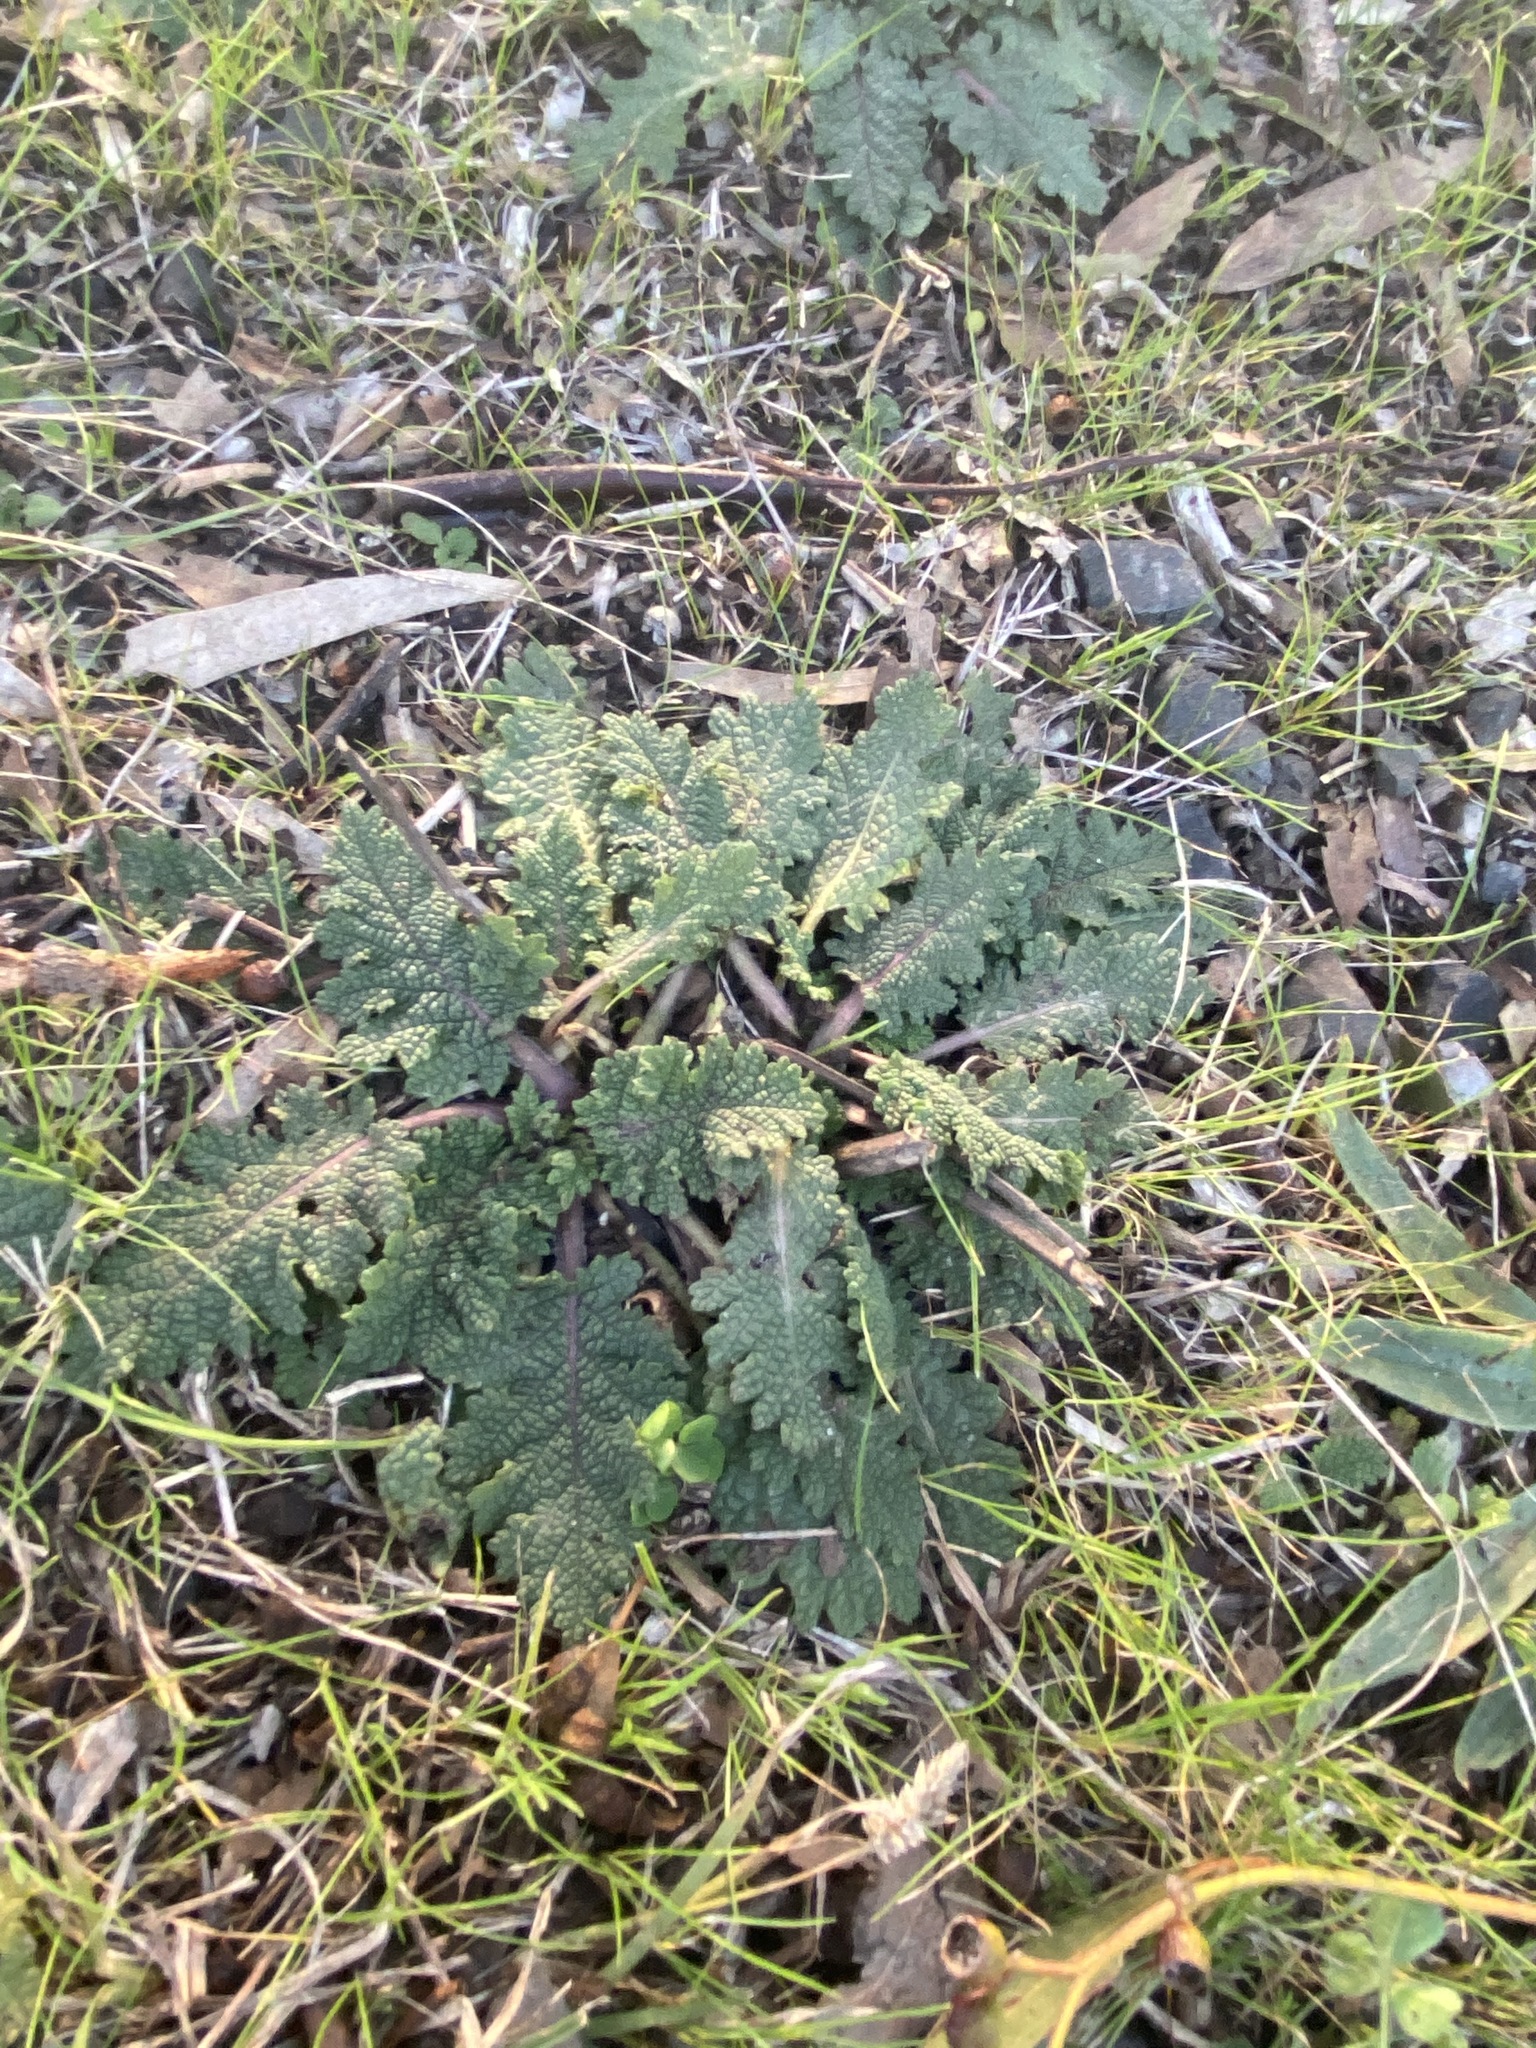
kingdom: Plantae
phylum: Tracheophyta
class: Magnoliopsida
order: Lamiales
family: Lamiaceae
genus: Salvia
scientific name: Salvia verbenaca
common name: Wild clary
